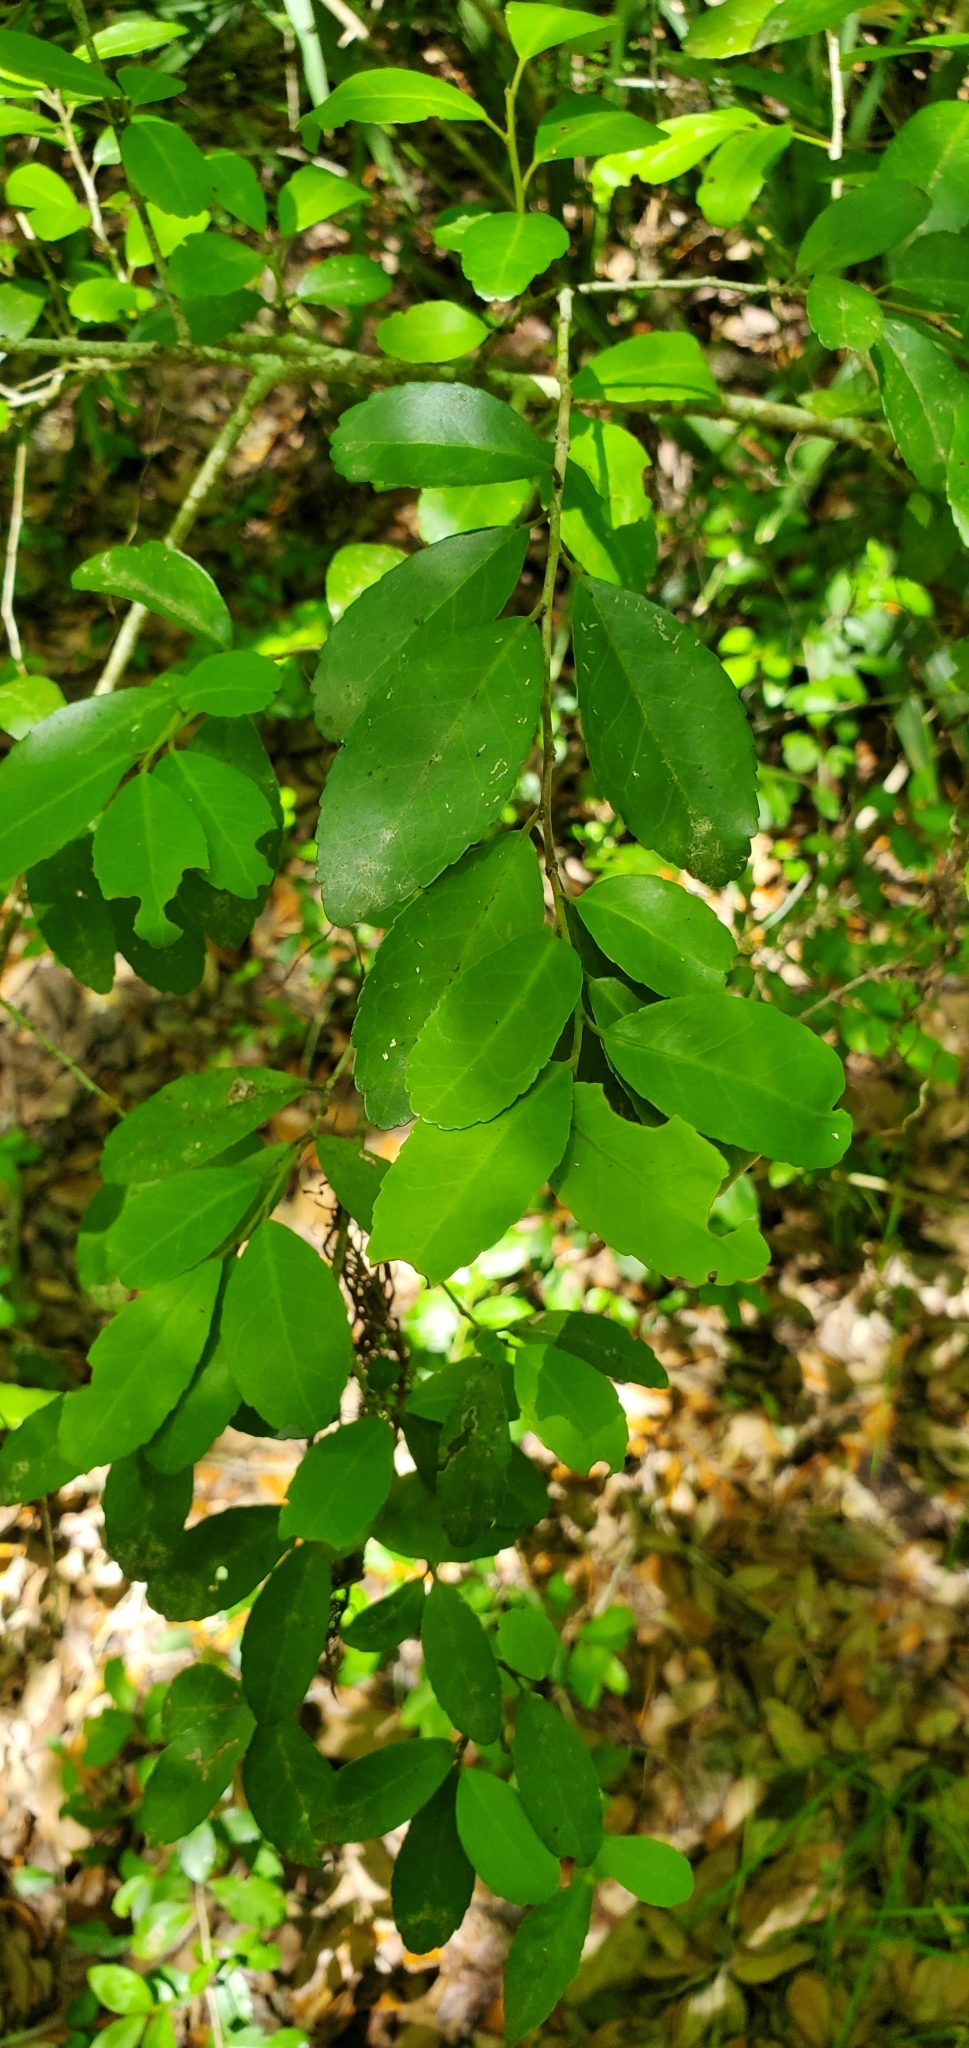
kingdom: Plantae
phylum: Tracheophyta
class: Magnoliopsida
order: Aquifoliales
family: Aquifoliaceae
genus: Ilex
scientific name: Ilex vomitoria
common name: Yaupon holly
